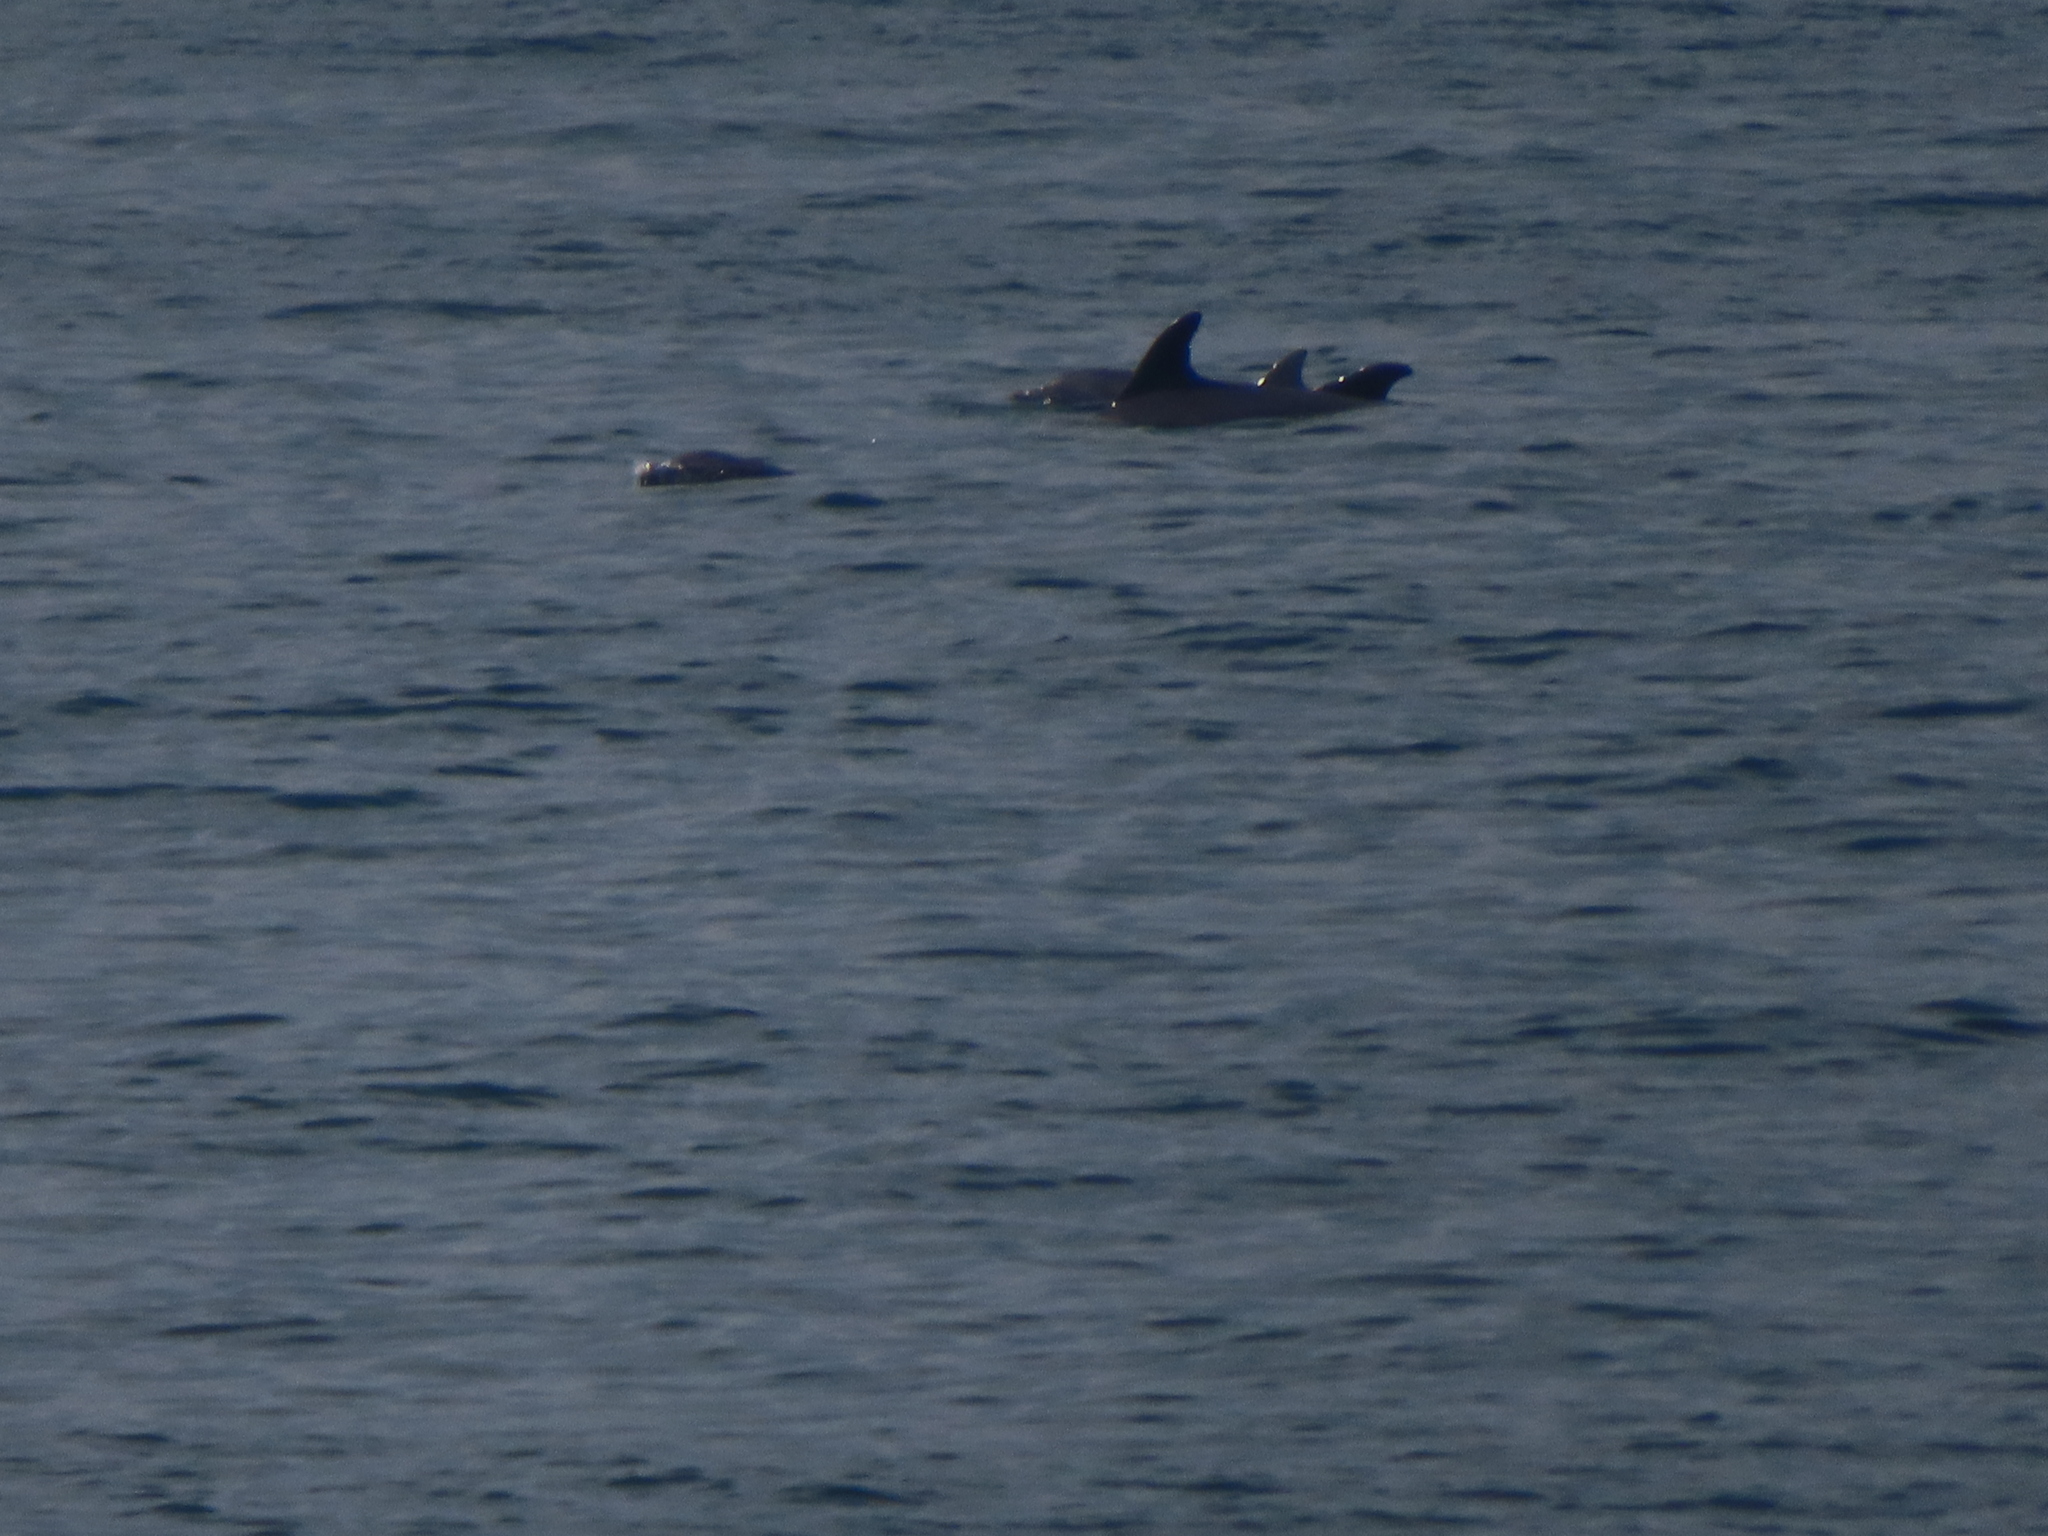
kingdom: Animalia
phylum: Chordata
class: Mammalia
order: Cetacea
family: Delphinidae
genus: Tursiops
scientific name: Tursiops truncatus
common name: Bottlenose dolphin
